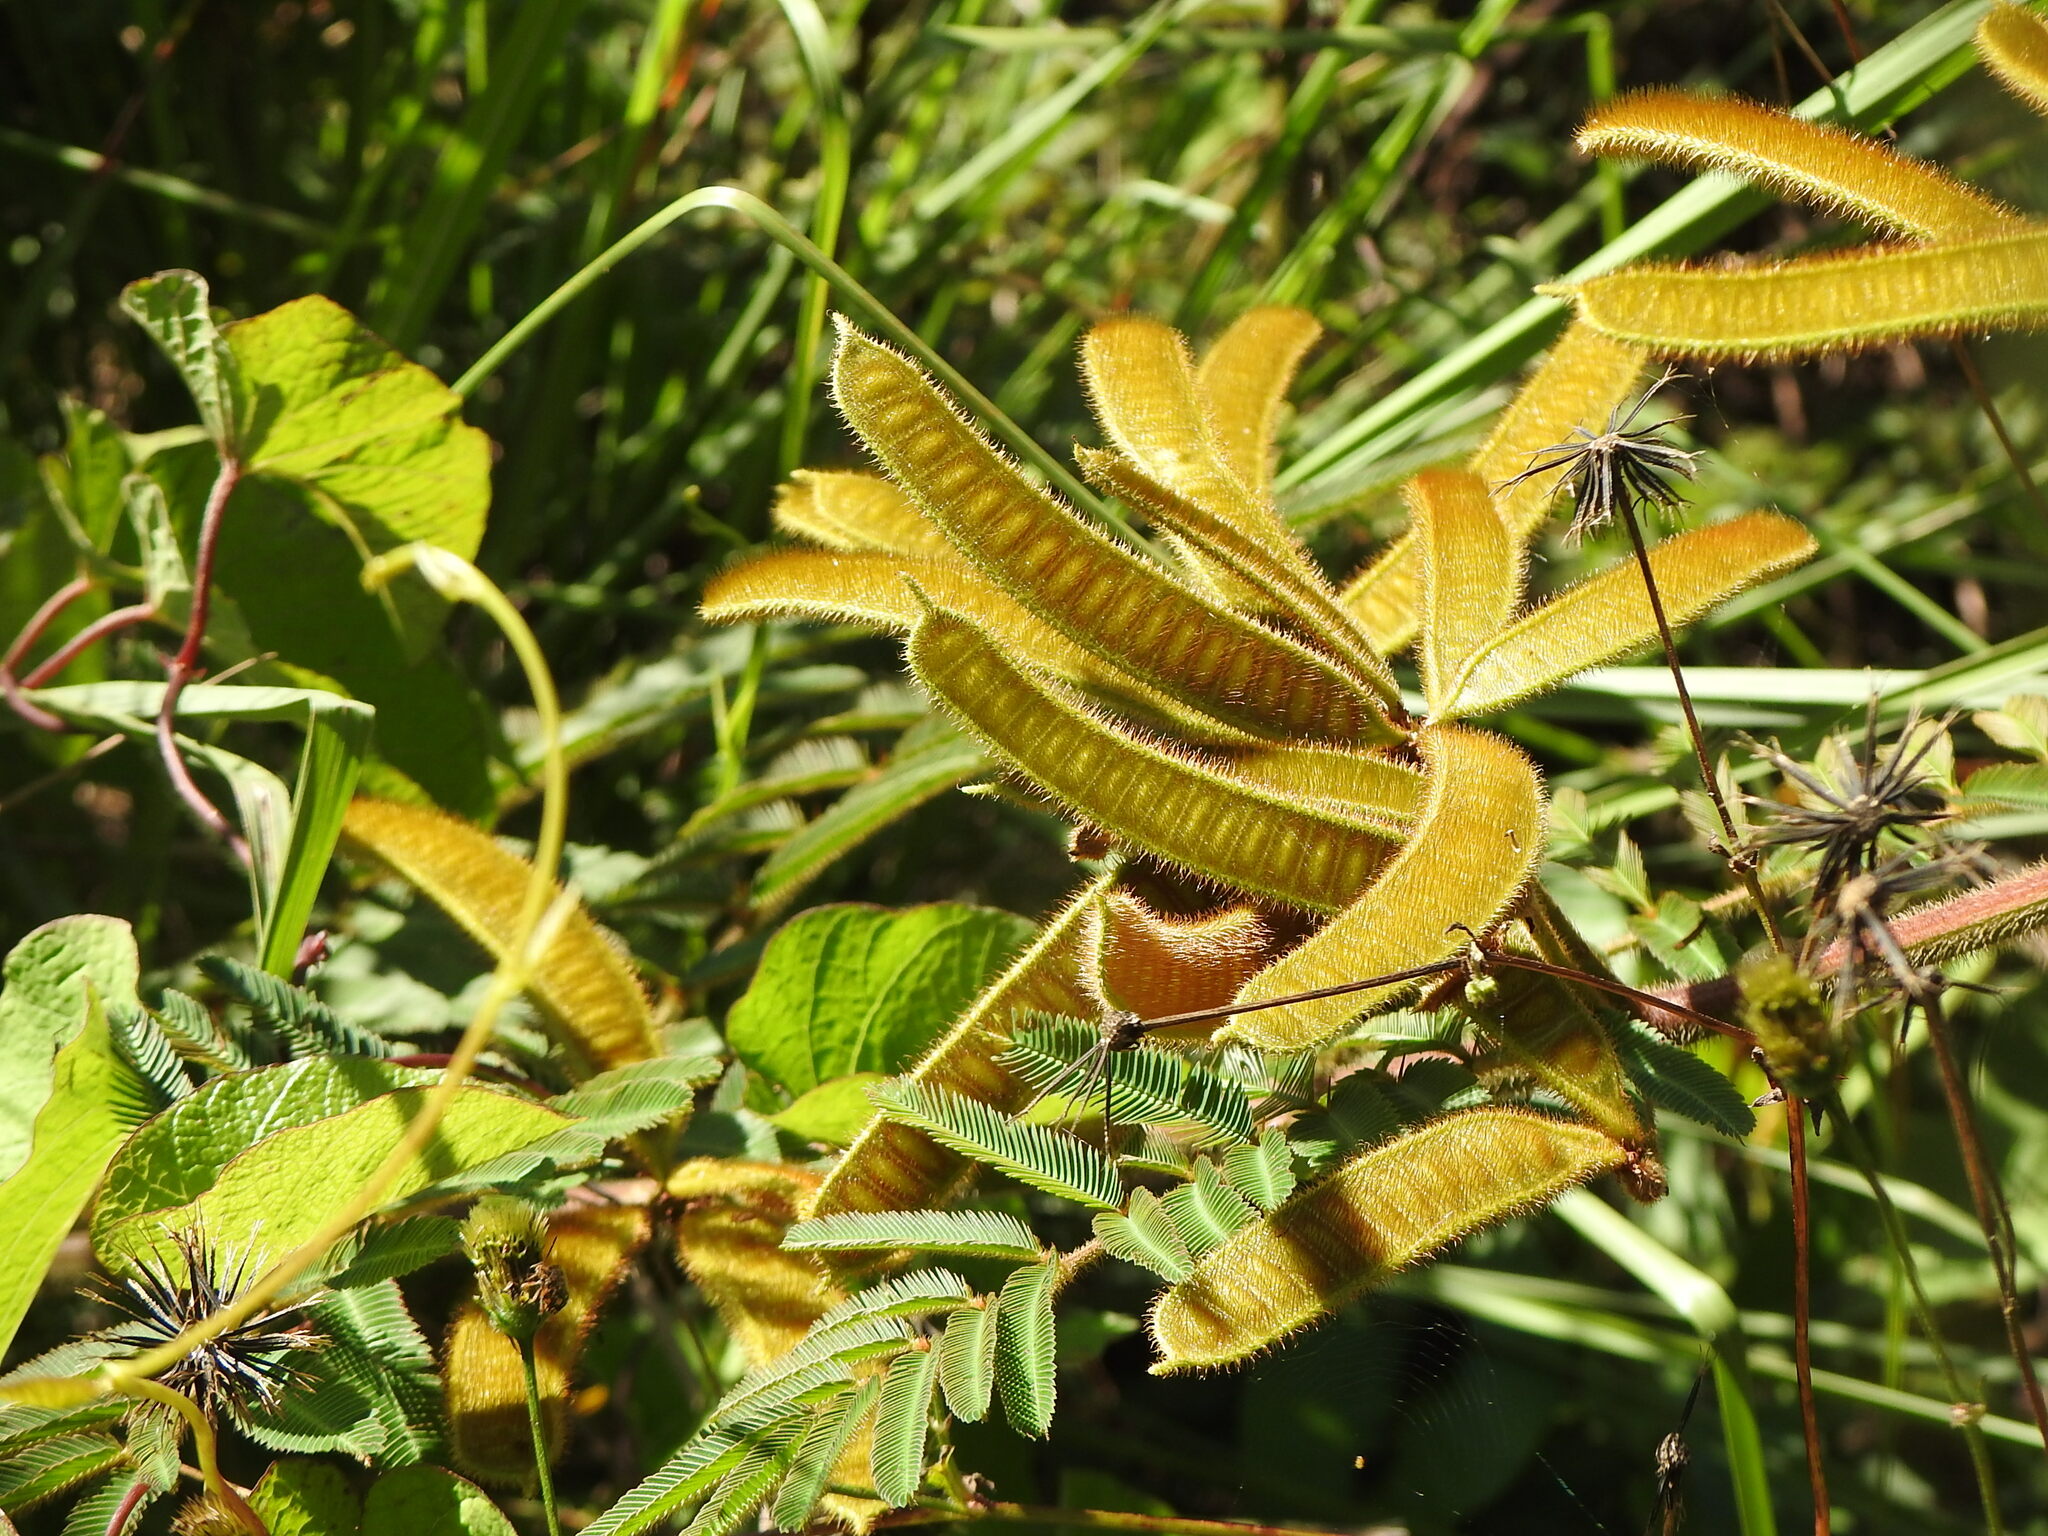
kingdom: Plantae
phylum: Tracheophyta
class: Magnoliopsida
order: Fabales
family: Fabaceae
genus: Mimosa
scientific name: Mimosa pigra
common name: Black mimosa
